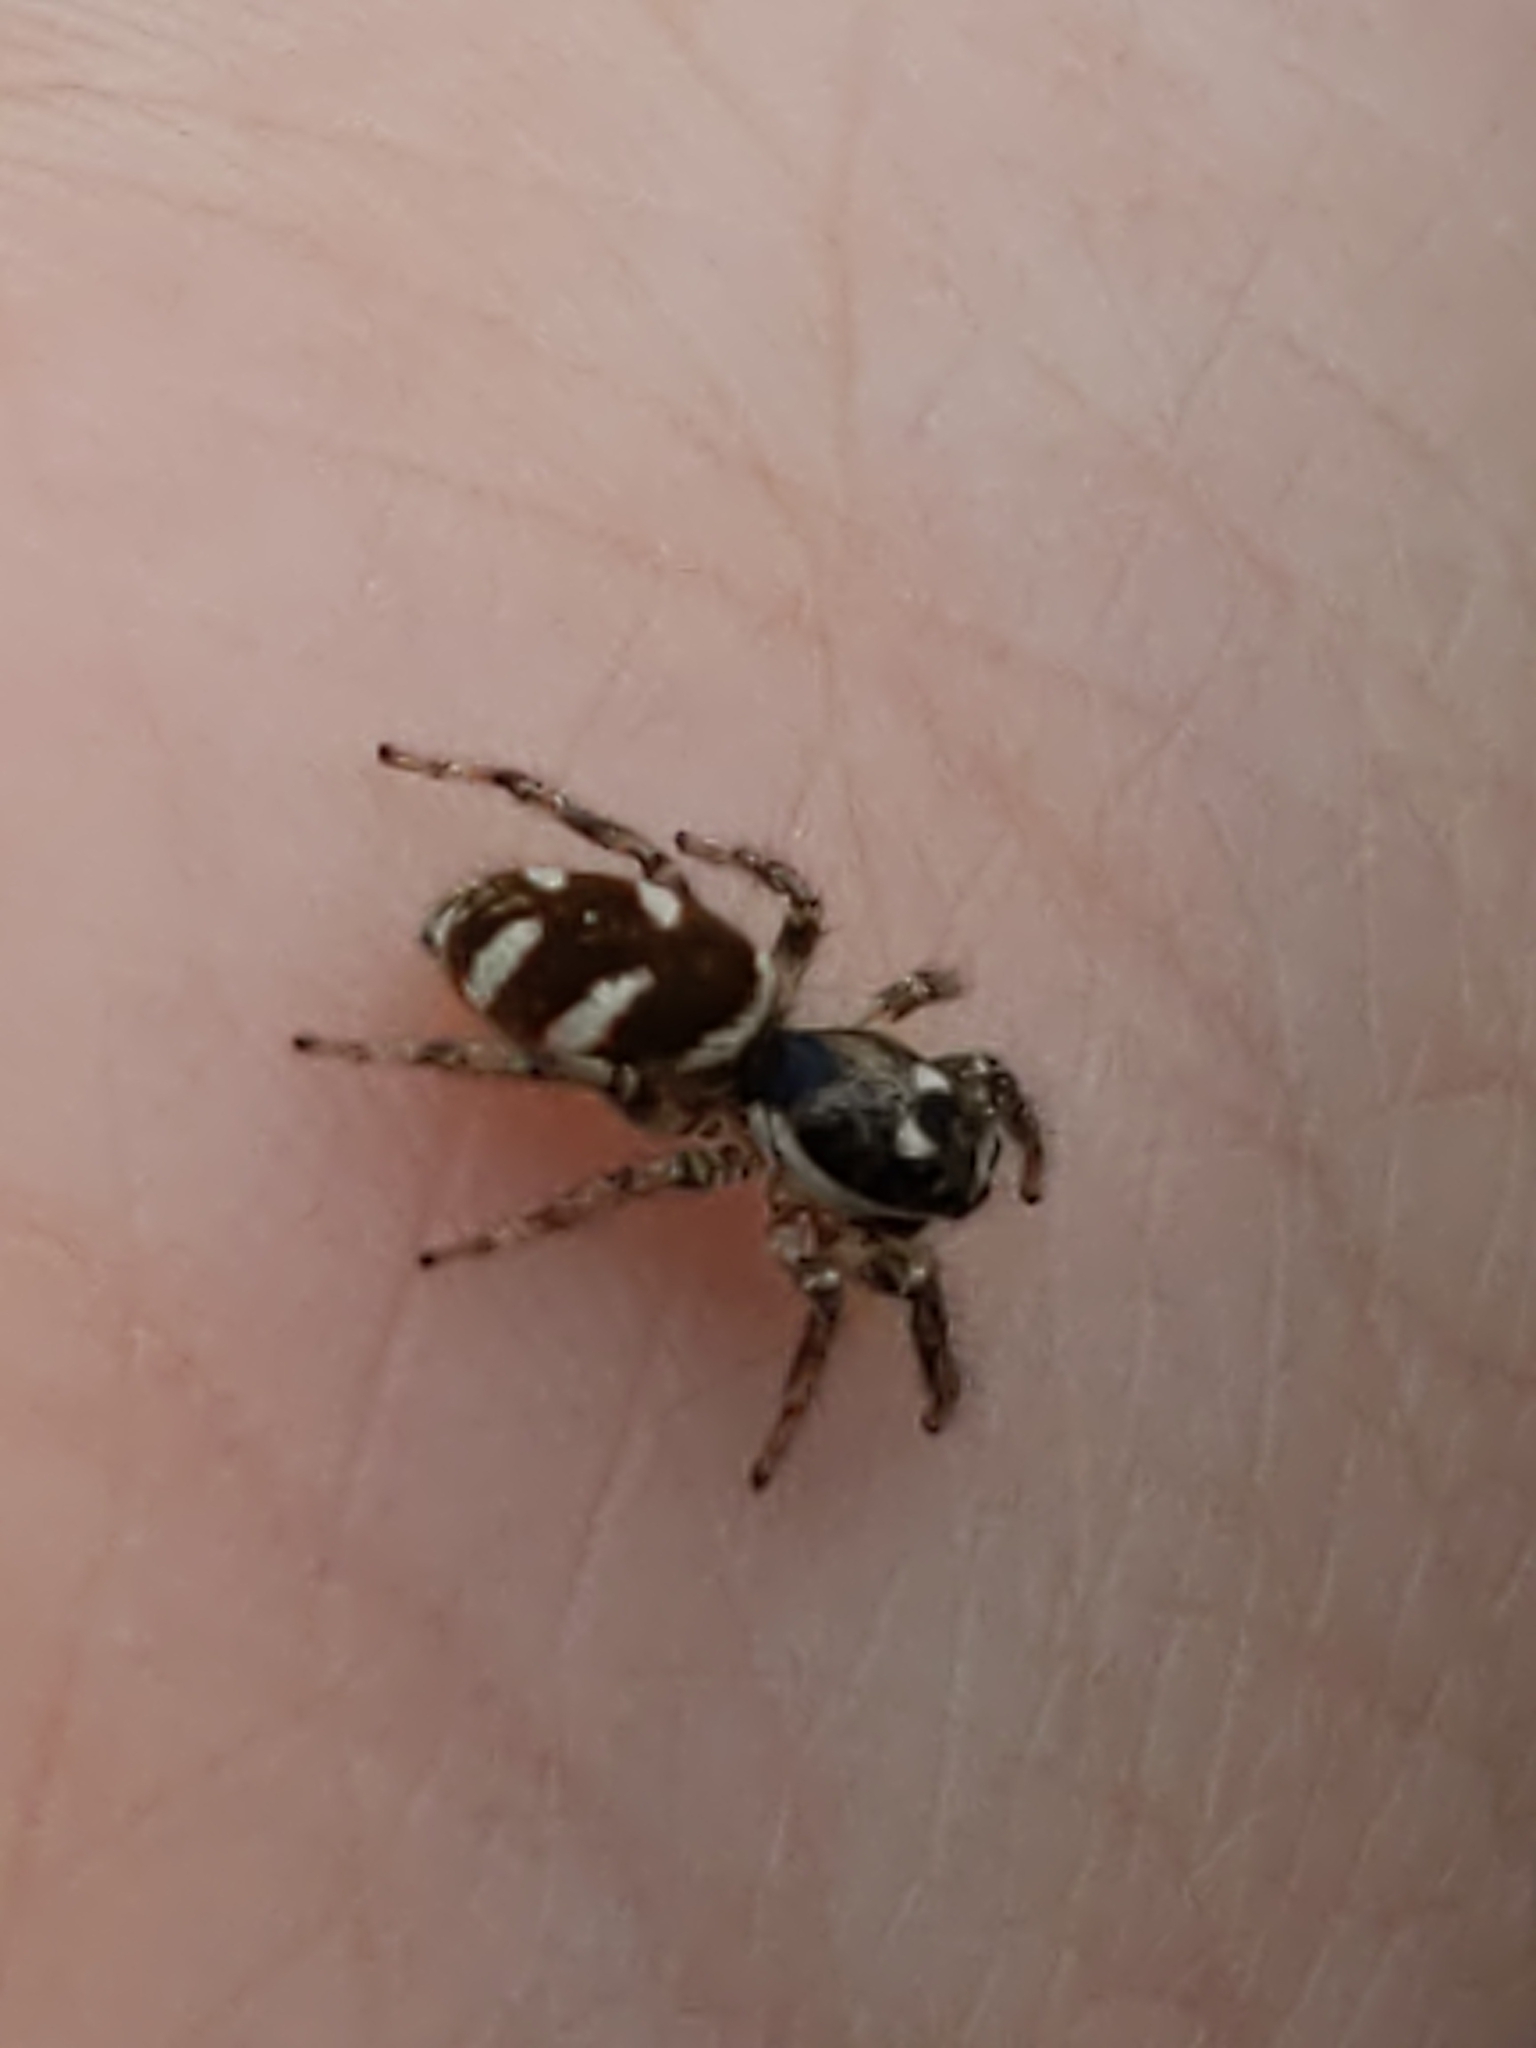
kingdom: Animalia
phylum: Arthropoda
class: Arachnida
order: Araneae
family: Salticidae
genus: Salticus
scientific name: Salticus scenicus
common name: Zebra jumper
